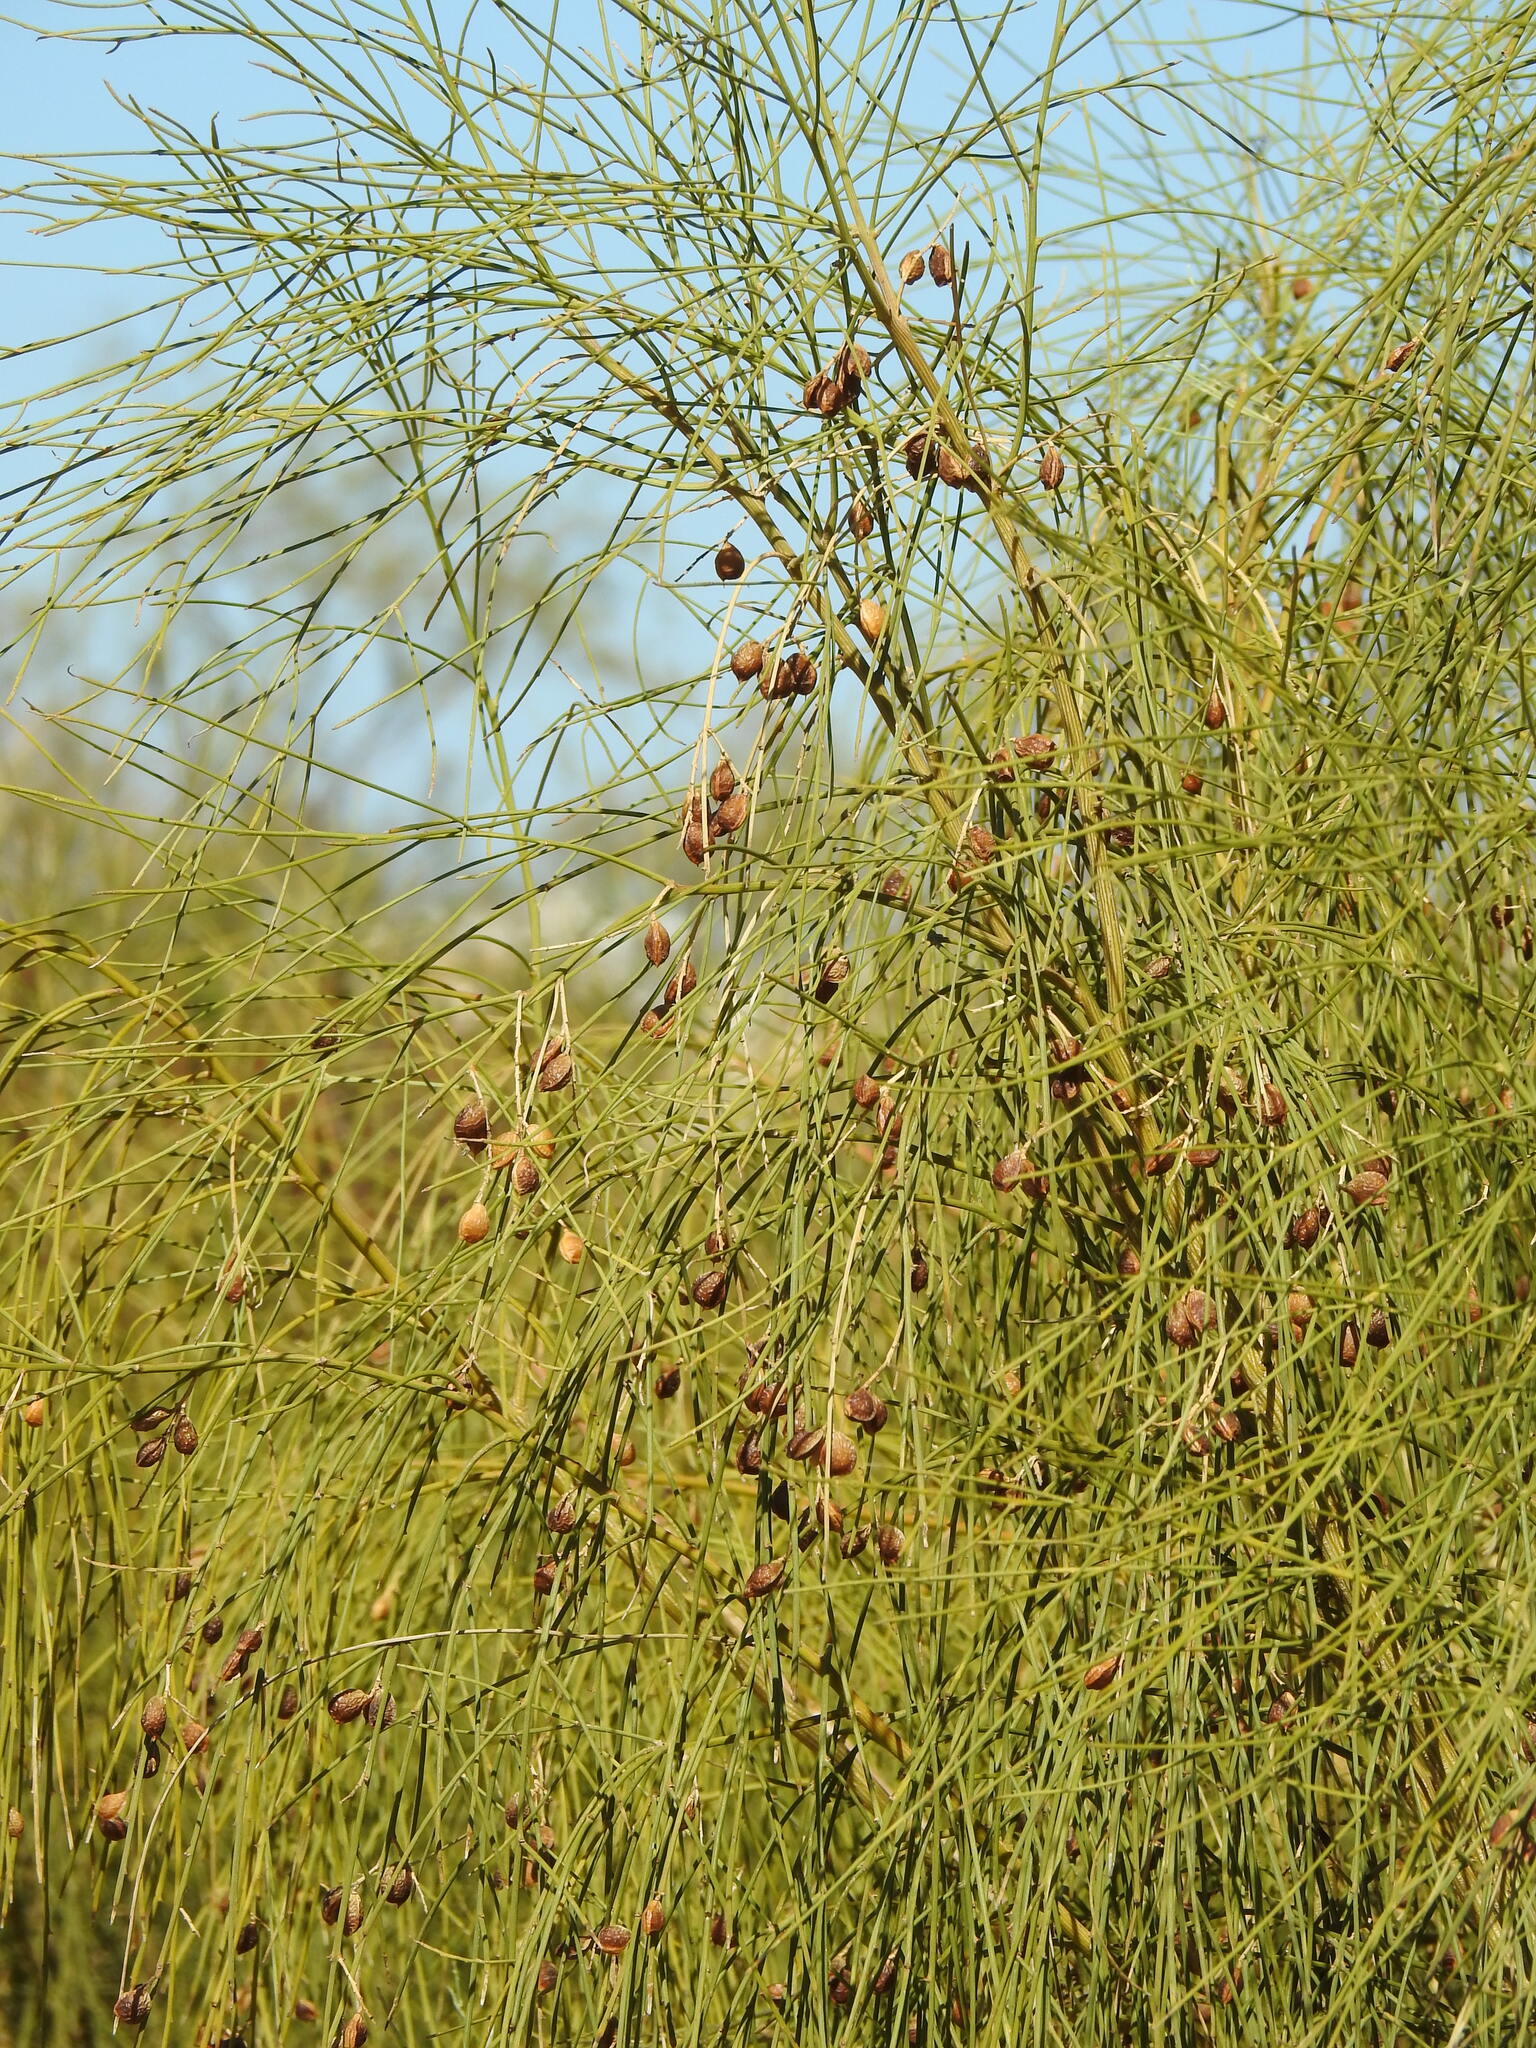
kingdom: Plantae
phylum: Tracheophyta
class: Magnoliopsida
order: Fabales
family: Fabaceae
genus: Retama
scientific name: Retama monosperma
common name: Bridal broom
